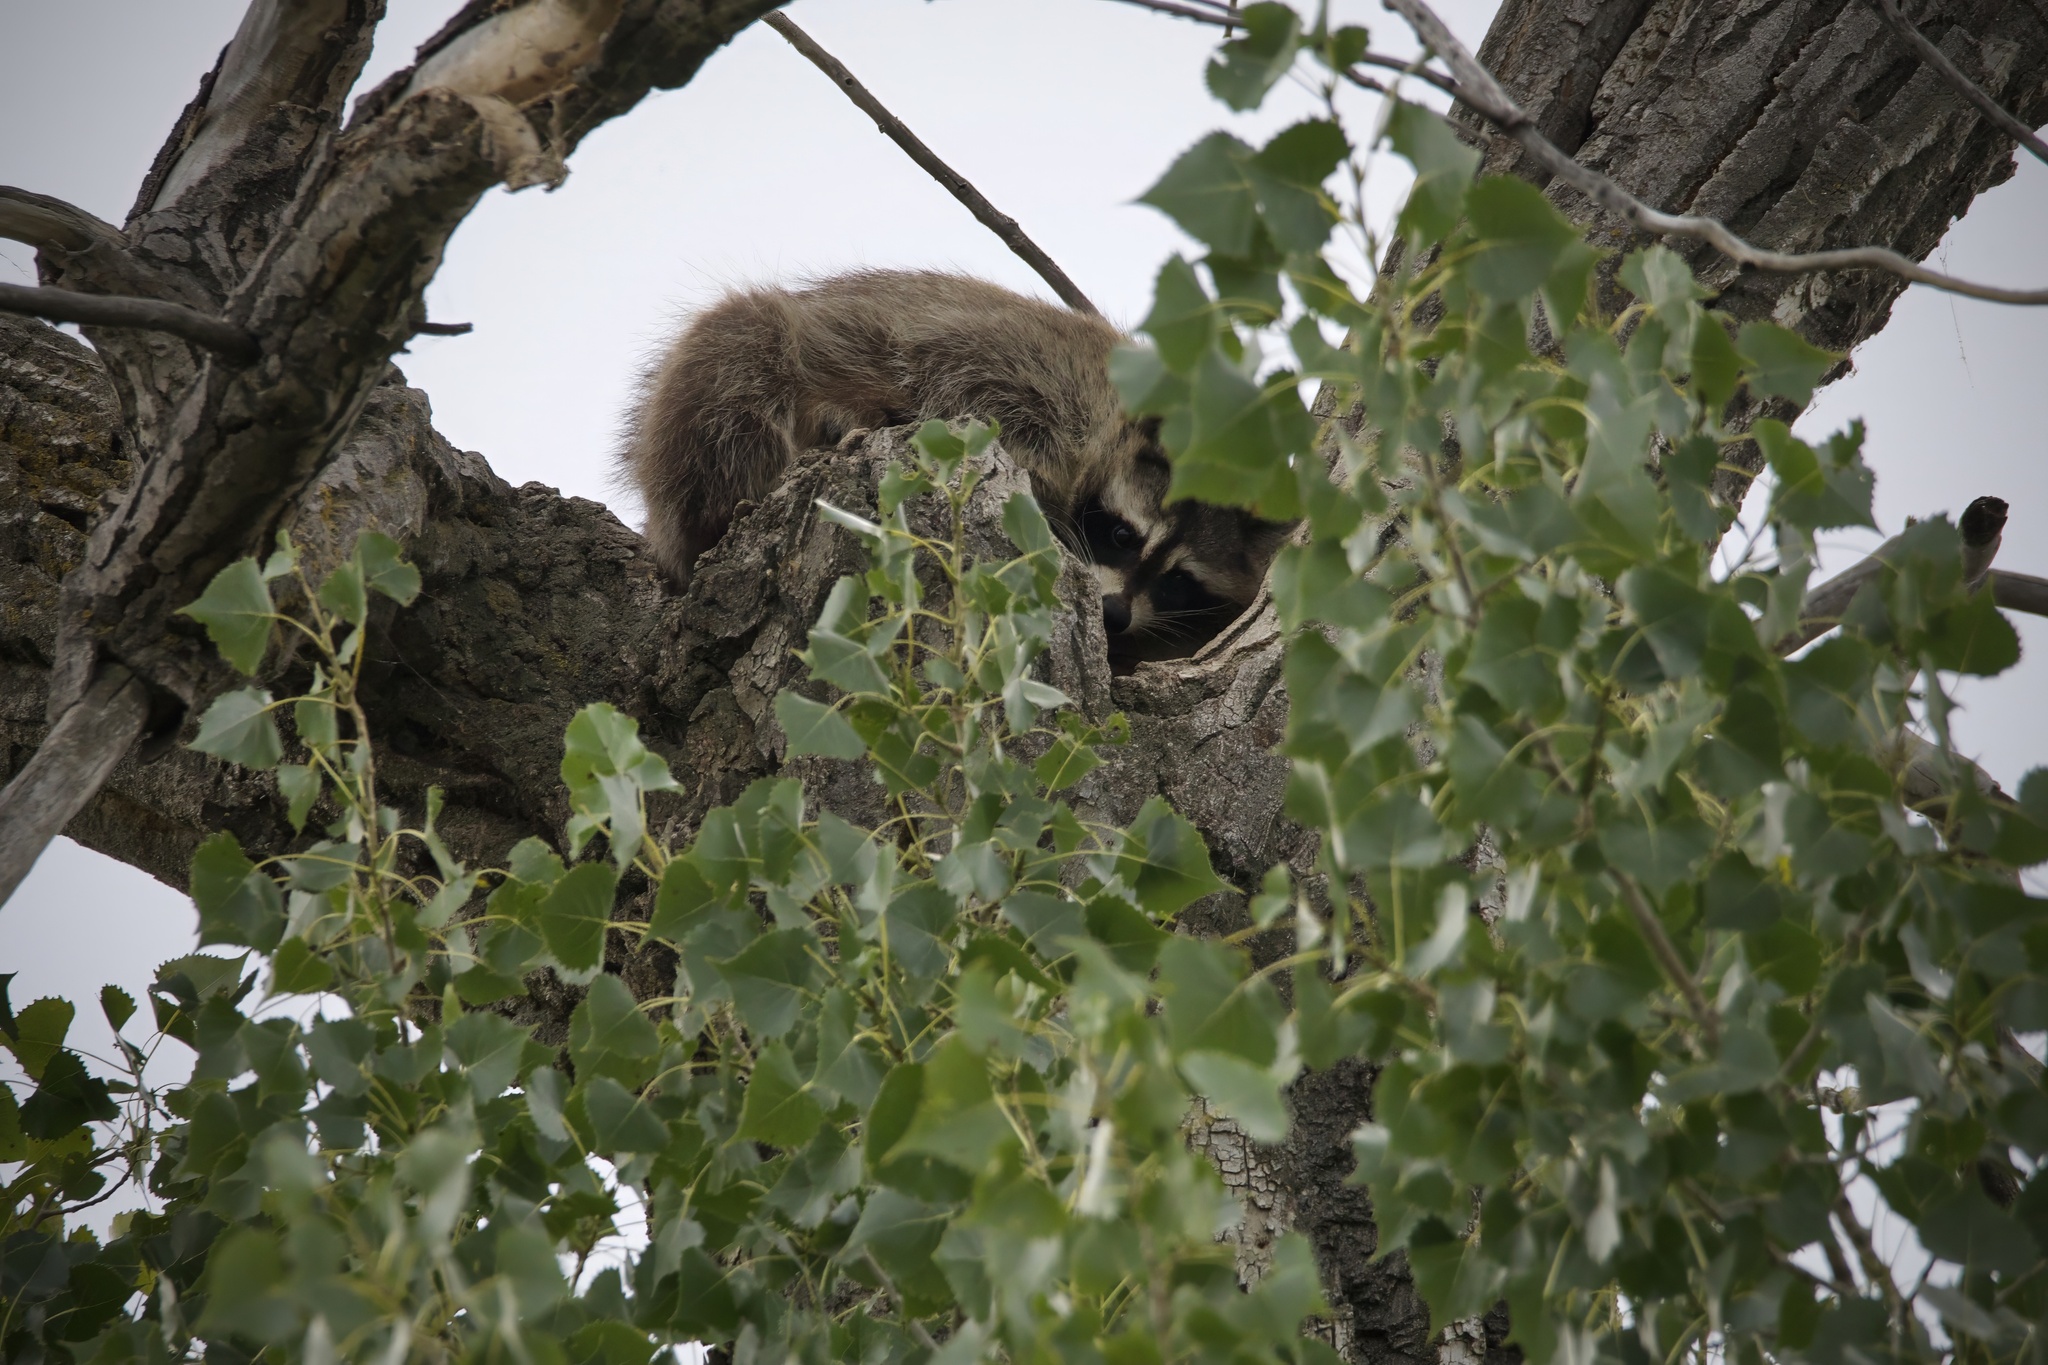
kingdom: Animalia
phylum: Chordata
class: Mammalia
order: Carnivora
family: Procyonidae
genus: Procyon
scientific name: Procyon lotor
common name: Raccoon
